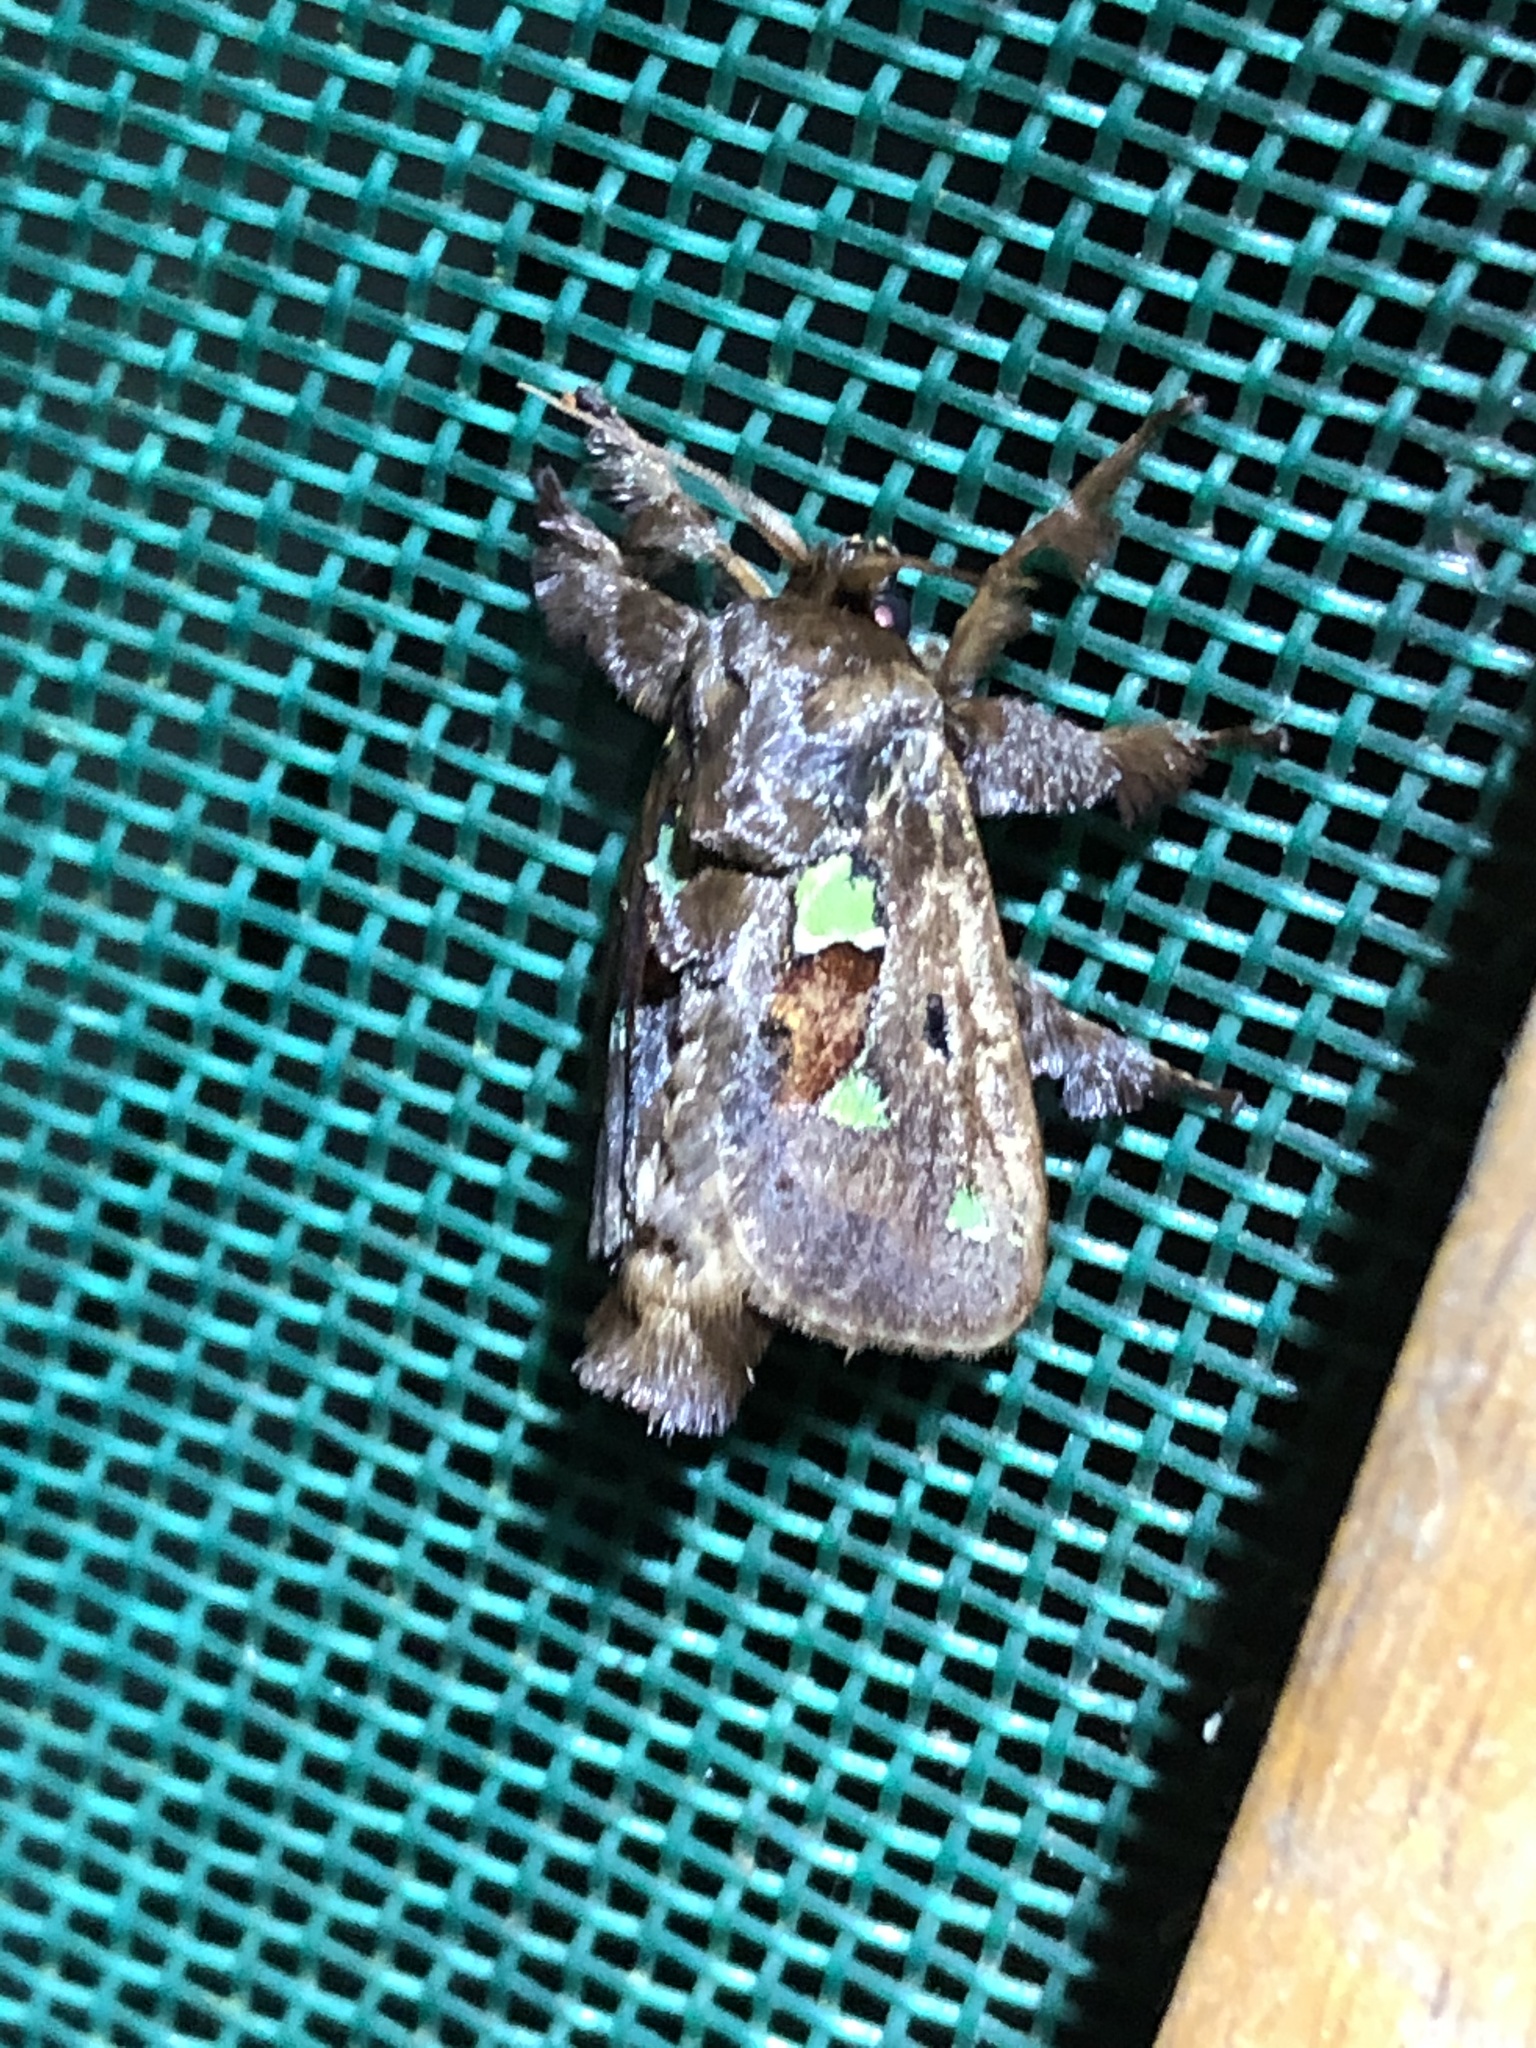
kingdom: Animalia
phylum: Arthropoda
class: Insecta
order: Lepidoptera
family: Limacodidae
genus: Euclea
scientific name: Euclea cipior
